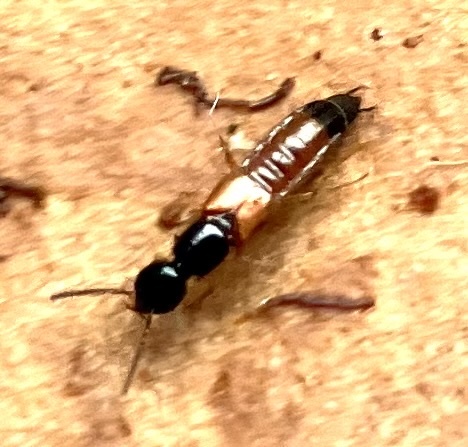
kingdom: Animalia
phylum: Arthropoda
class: Insecta
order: Coleoptera
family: Staphylinidae
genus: Belonuchus
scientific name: Belonuchus rufipennis
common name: Large rove beetle
